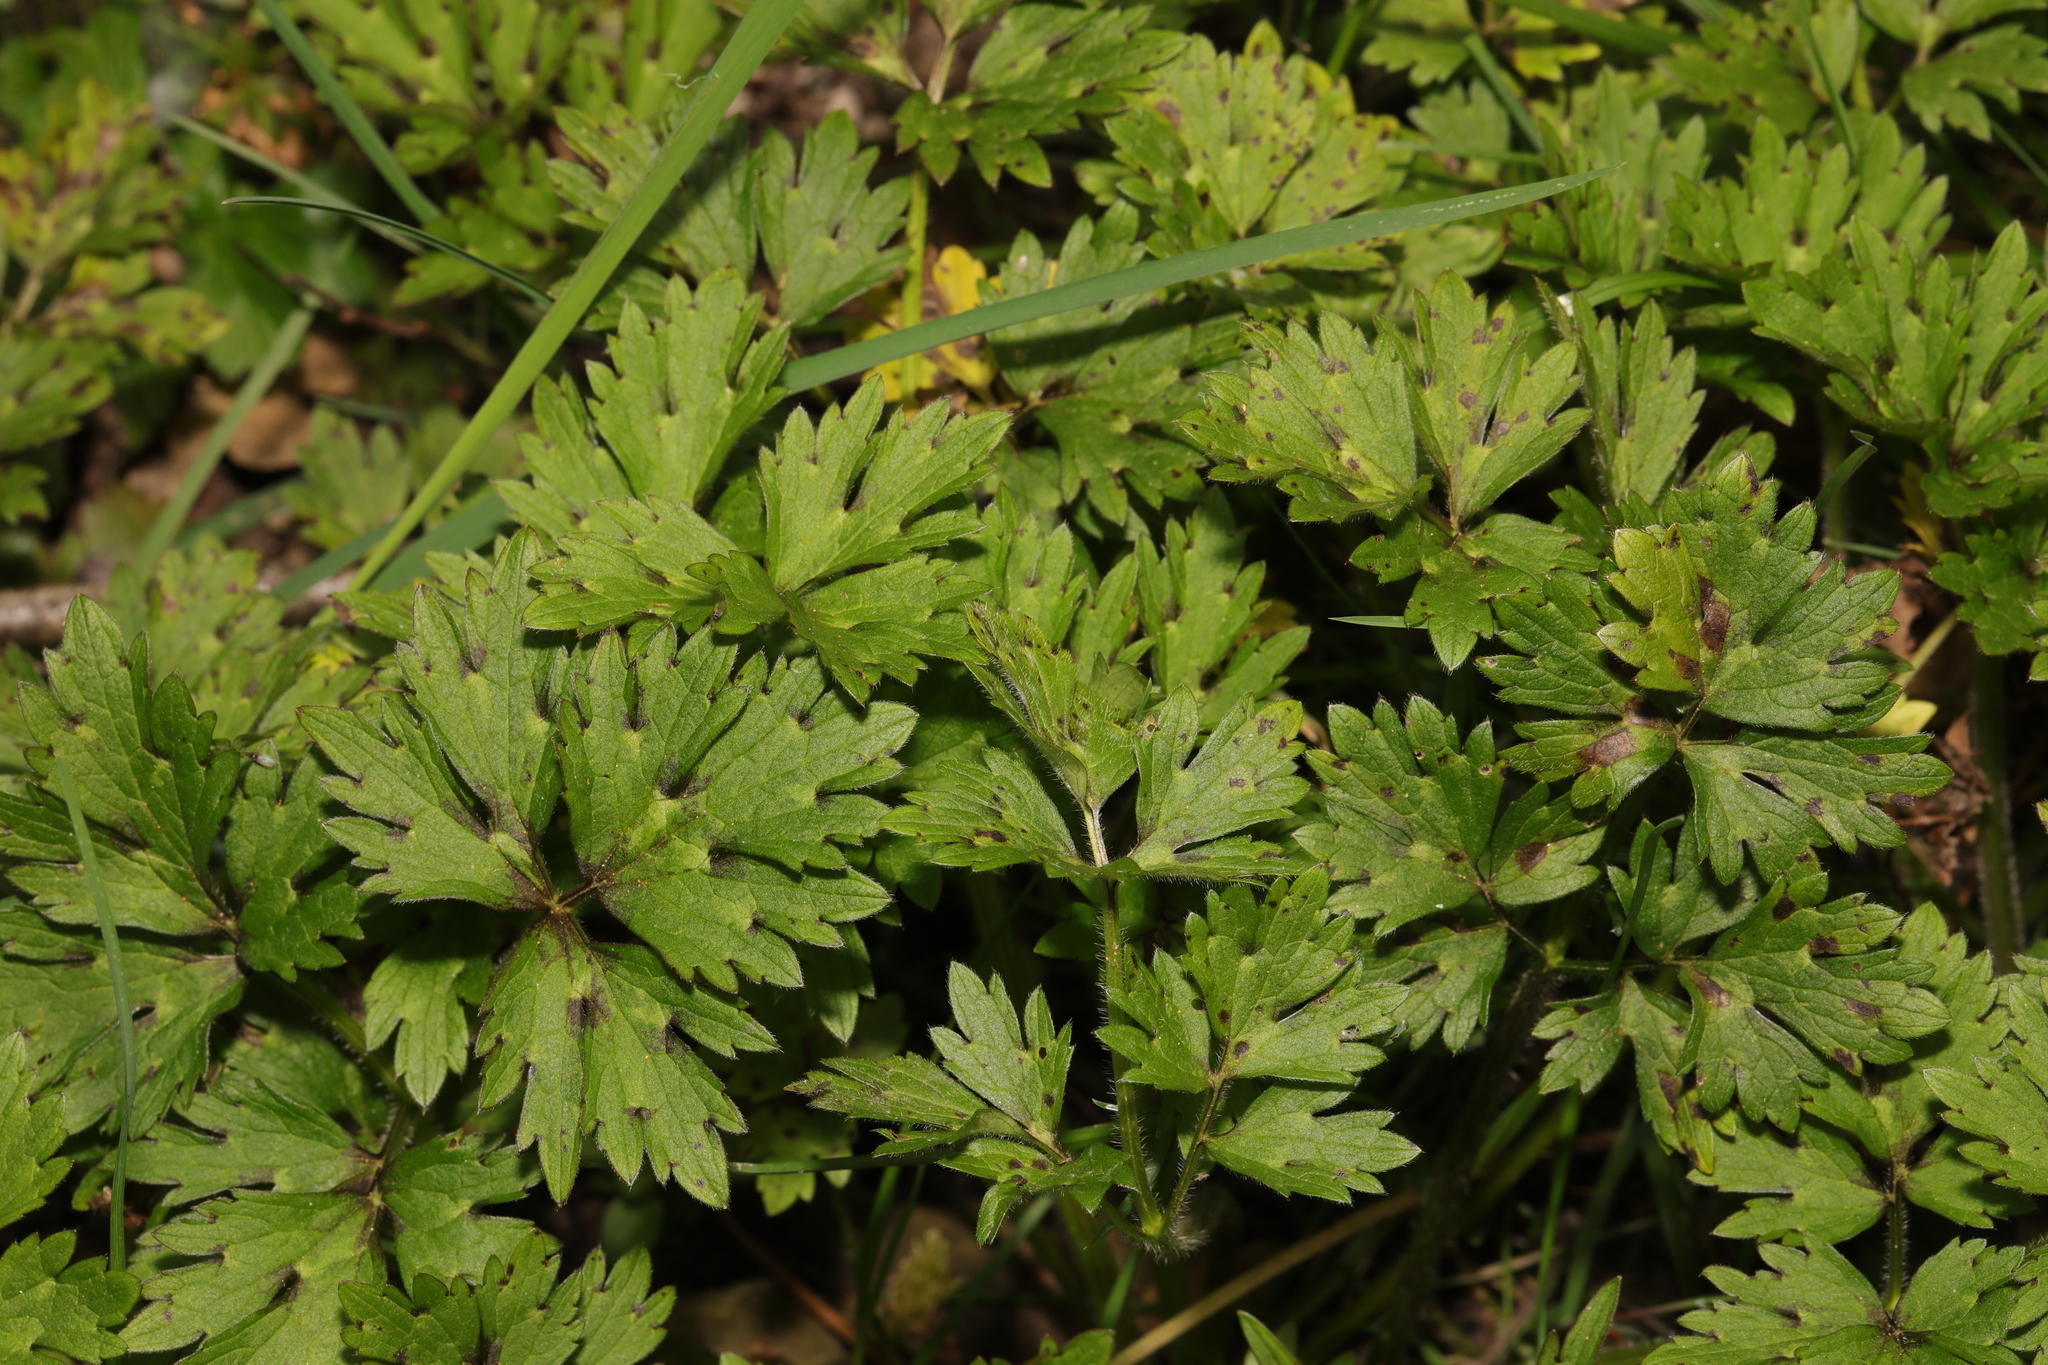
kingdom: Plantae
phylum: Tracheophyta
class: Magnoliopsida
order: Ranunculales
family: Ranunculaceae
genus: Ranunculus
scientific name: Ranunculus repens
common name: Creeping buttercup
